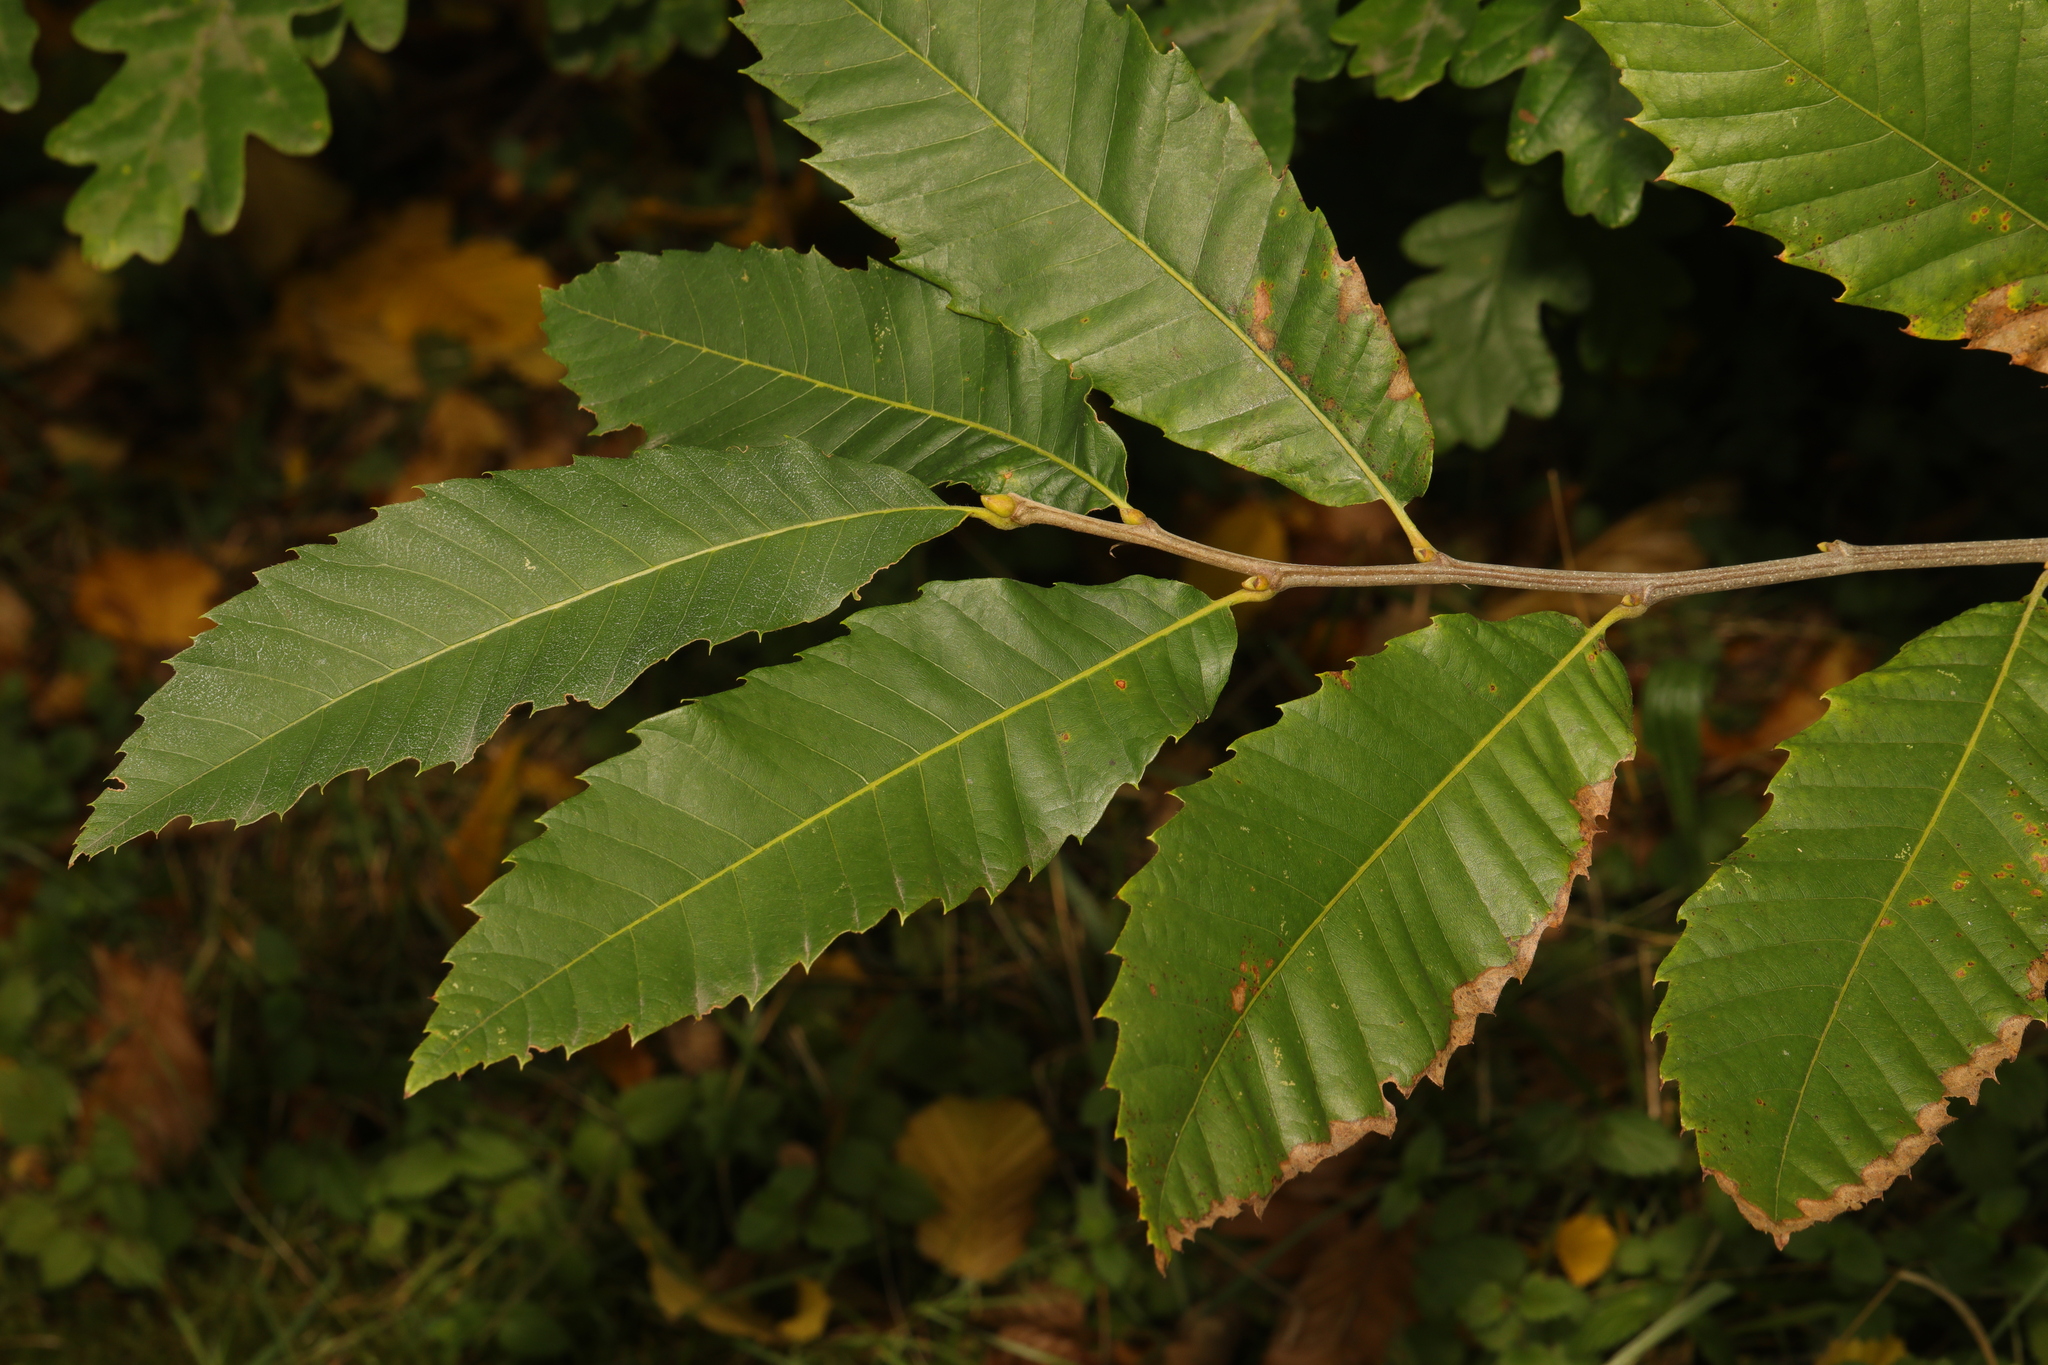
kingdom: Plantae
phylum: Tracheophyta
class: Magnoliopsida
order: Fagales
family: Fagaceae
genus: Castanea
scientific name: Castanea sativa
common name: Sweet chestnut
